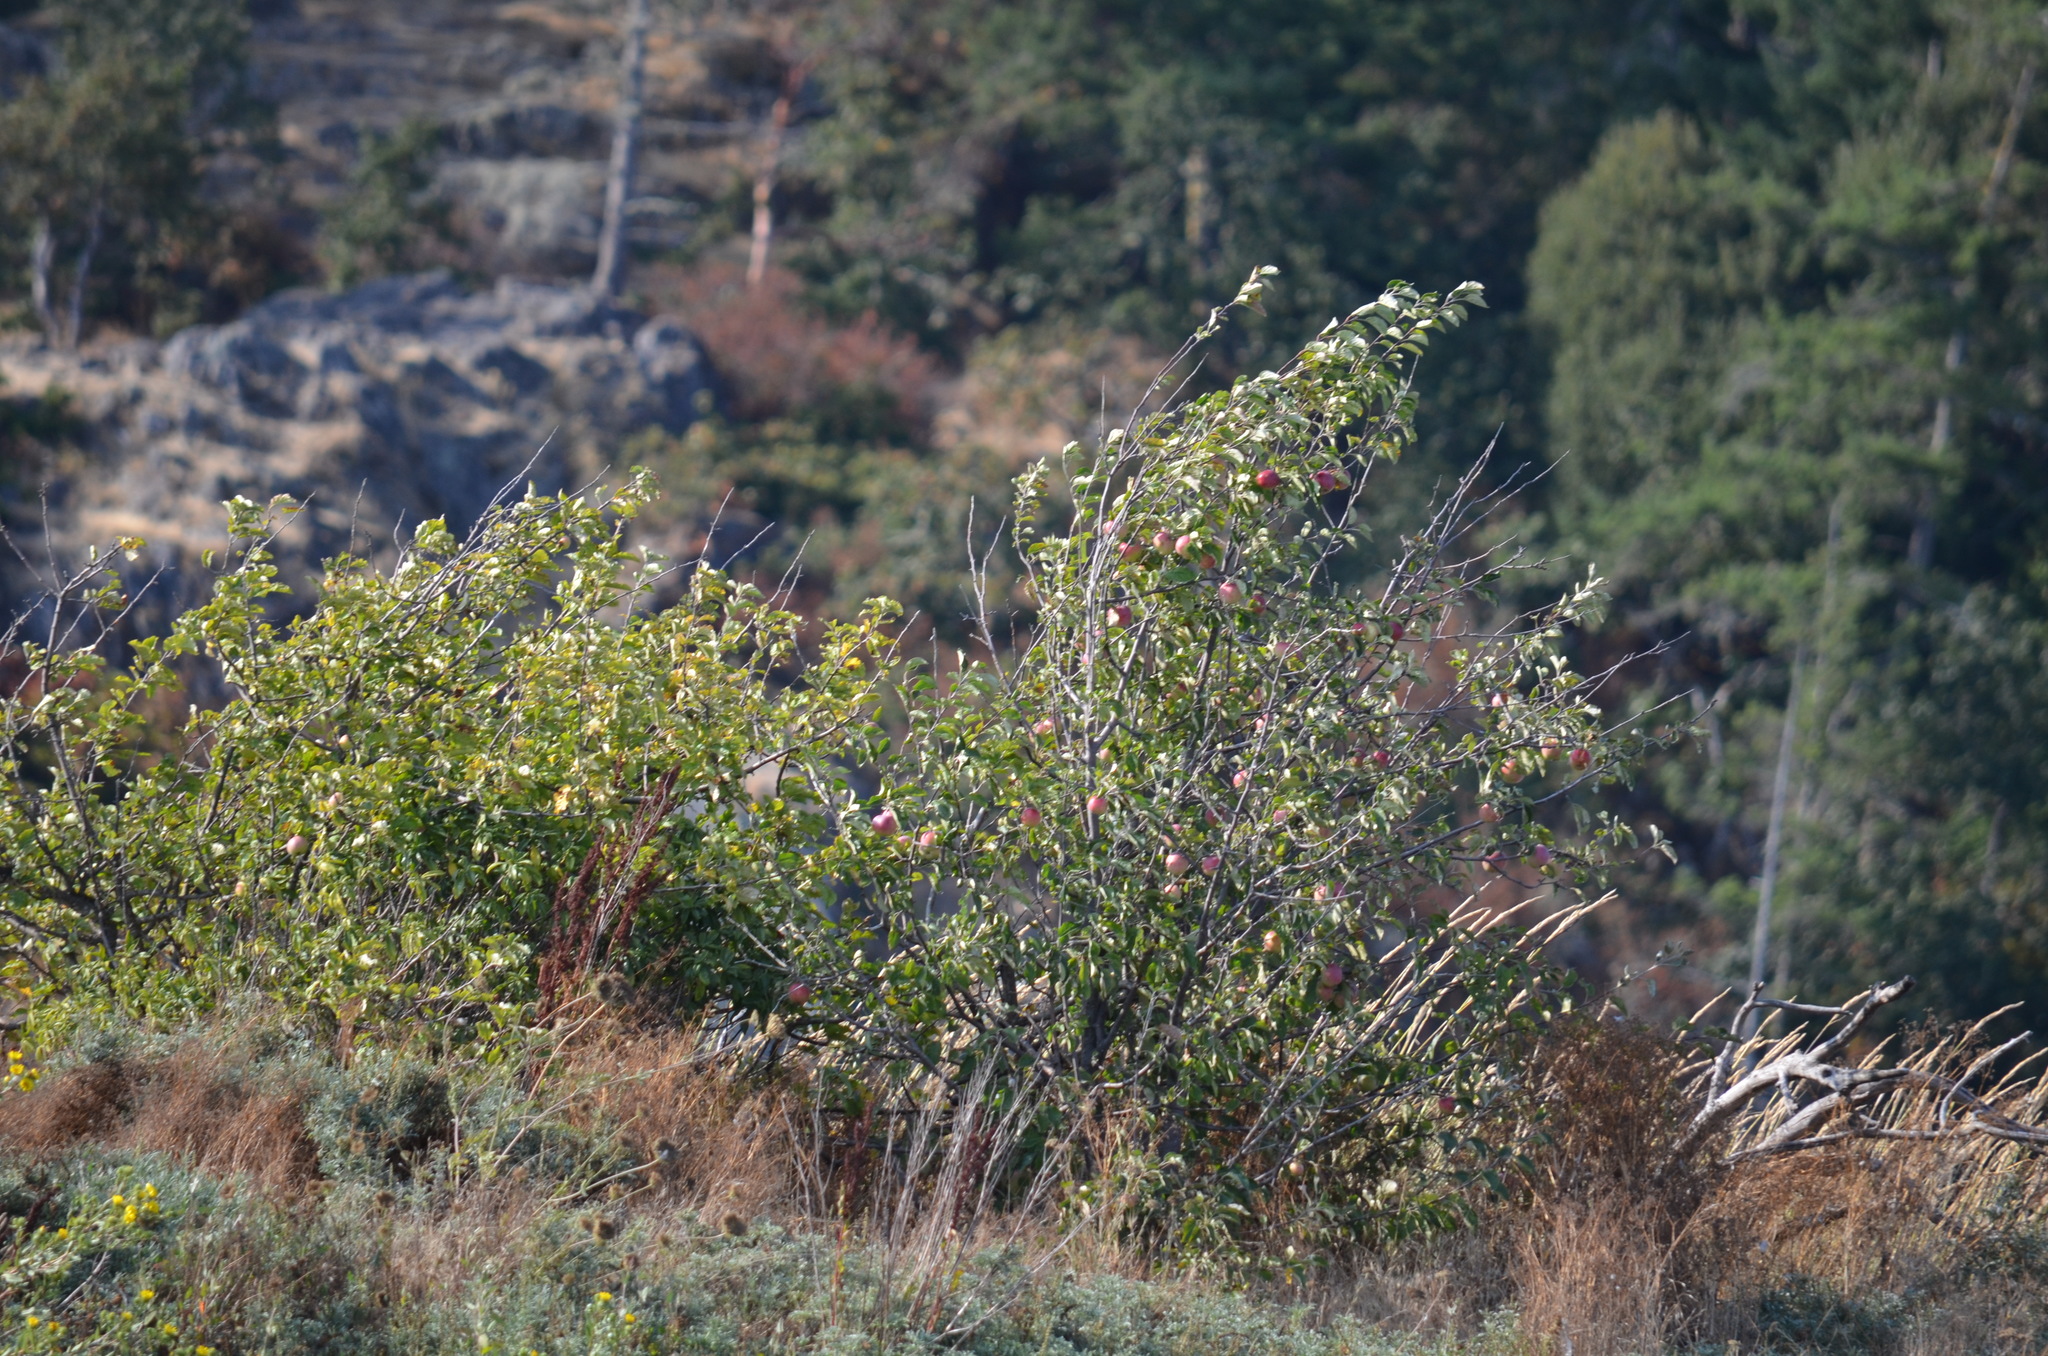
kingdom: Plantae
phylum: Tracheophyta
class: Magnoliopsida
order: Rosales
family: Rosaceae
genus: Malus
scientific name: Malus domestica
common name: Apple
